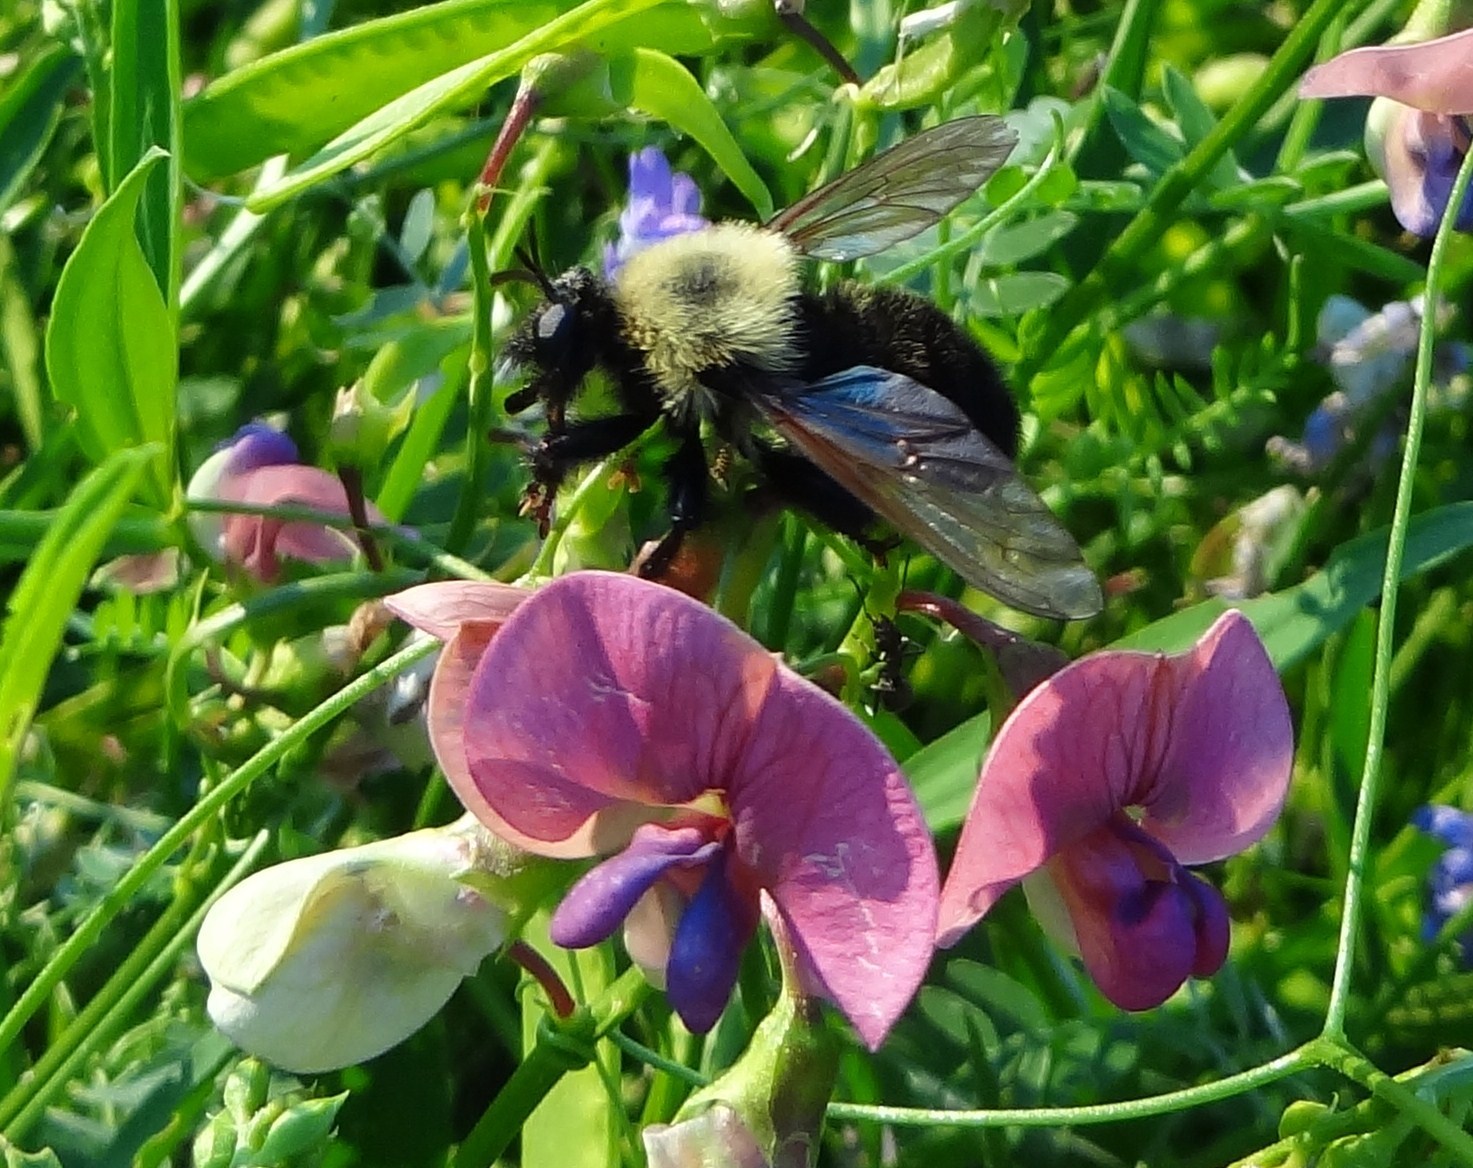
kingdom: Animalia
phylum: Arthropoda
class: Insecta
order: Diptera
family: Asilidae
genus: Laphria
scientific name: Laphria thoracica
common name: Bumble bee mimic robber fly
